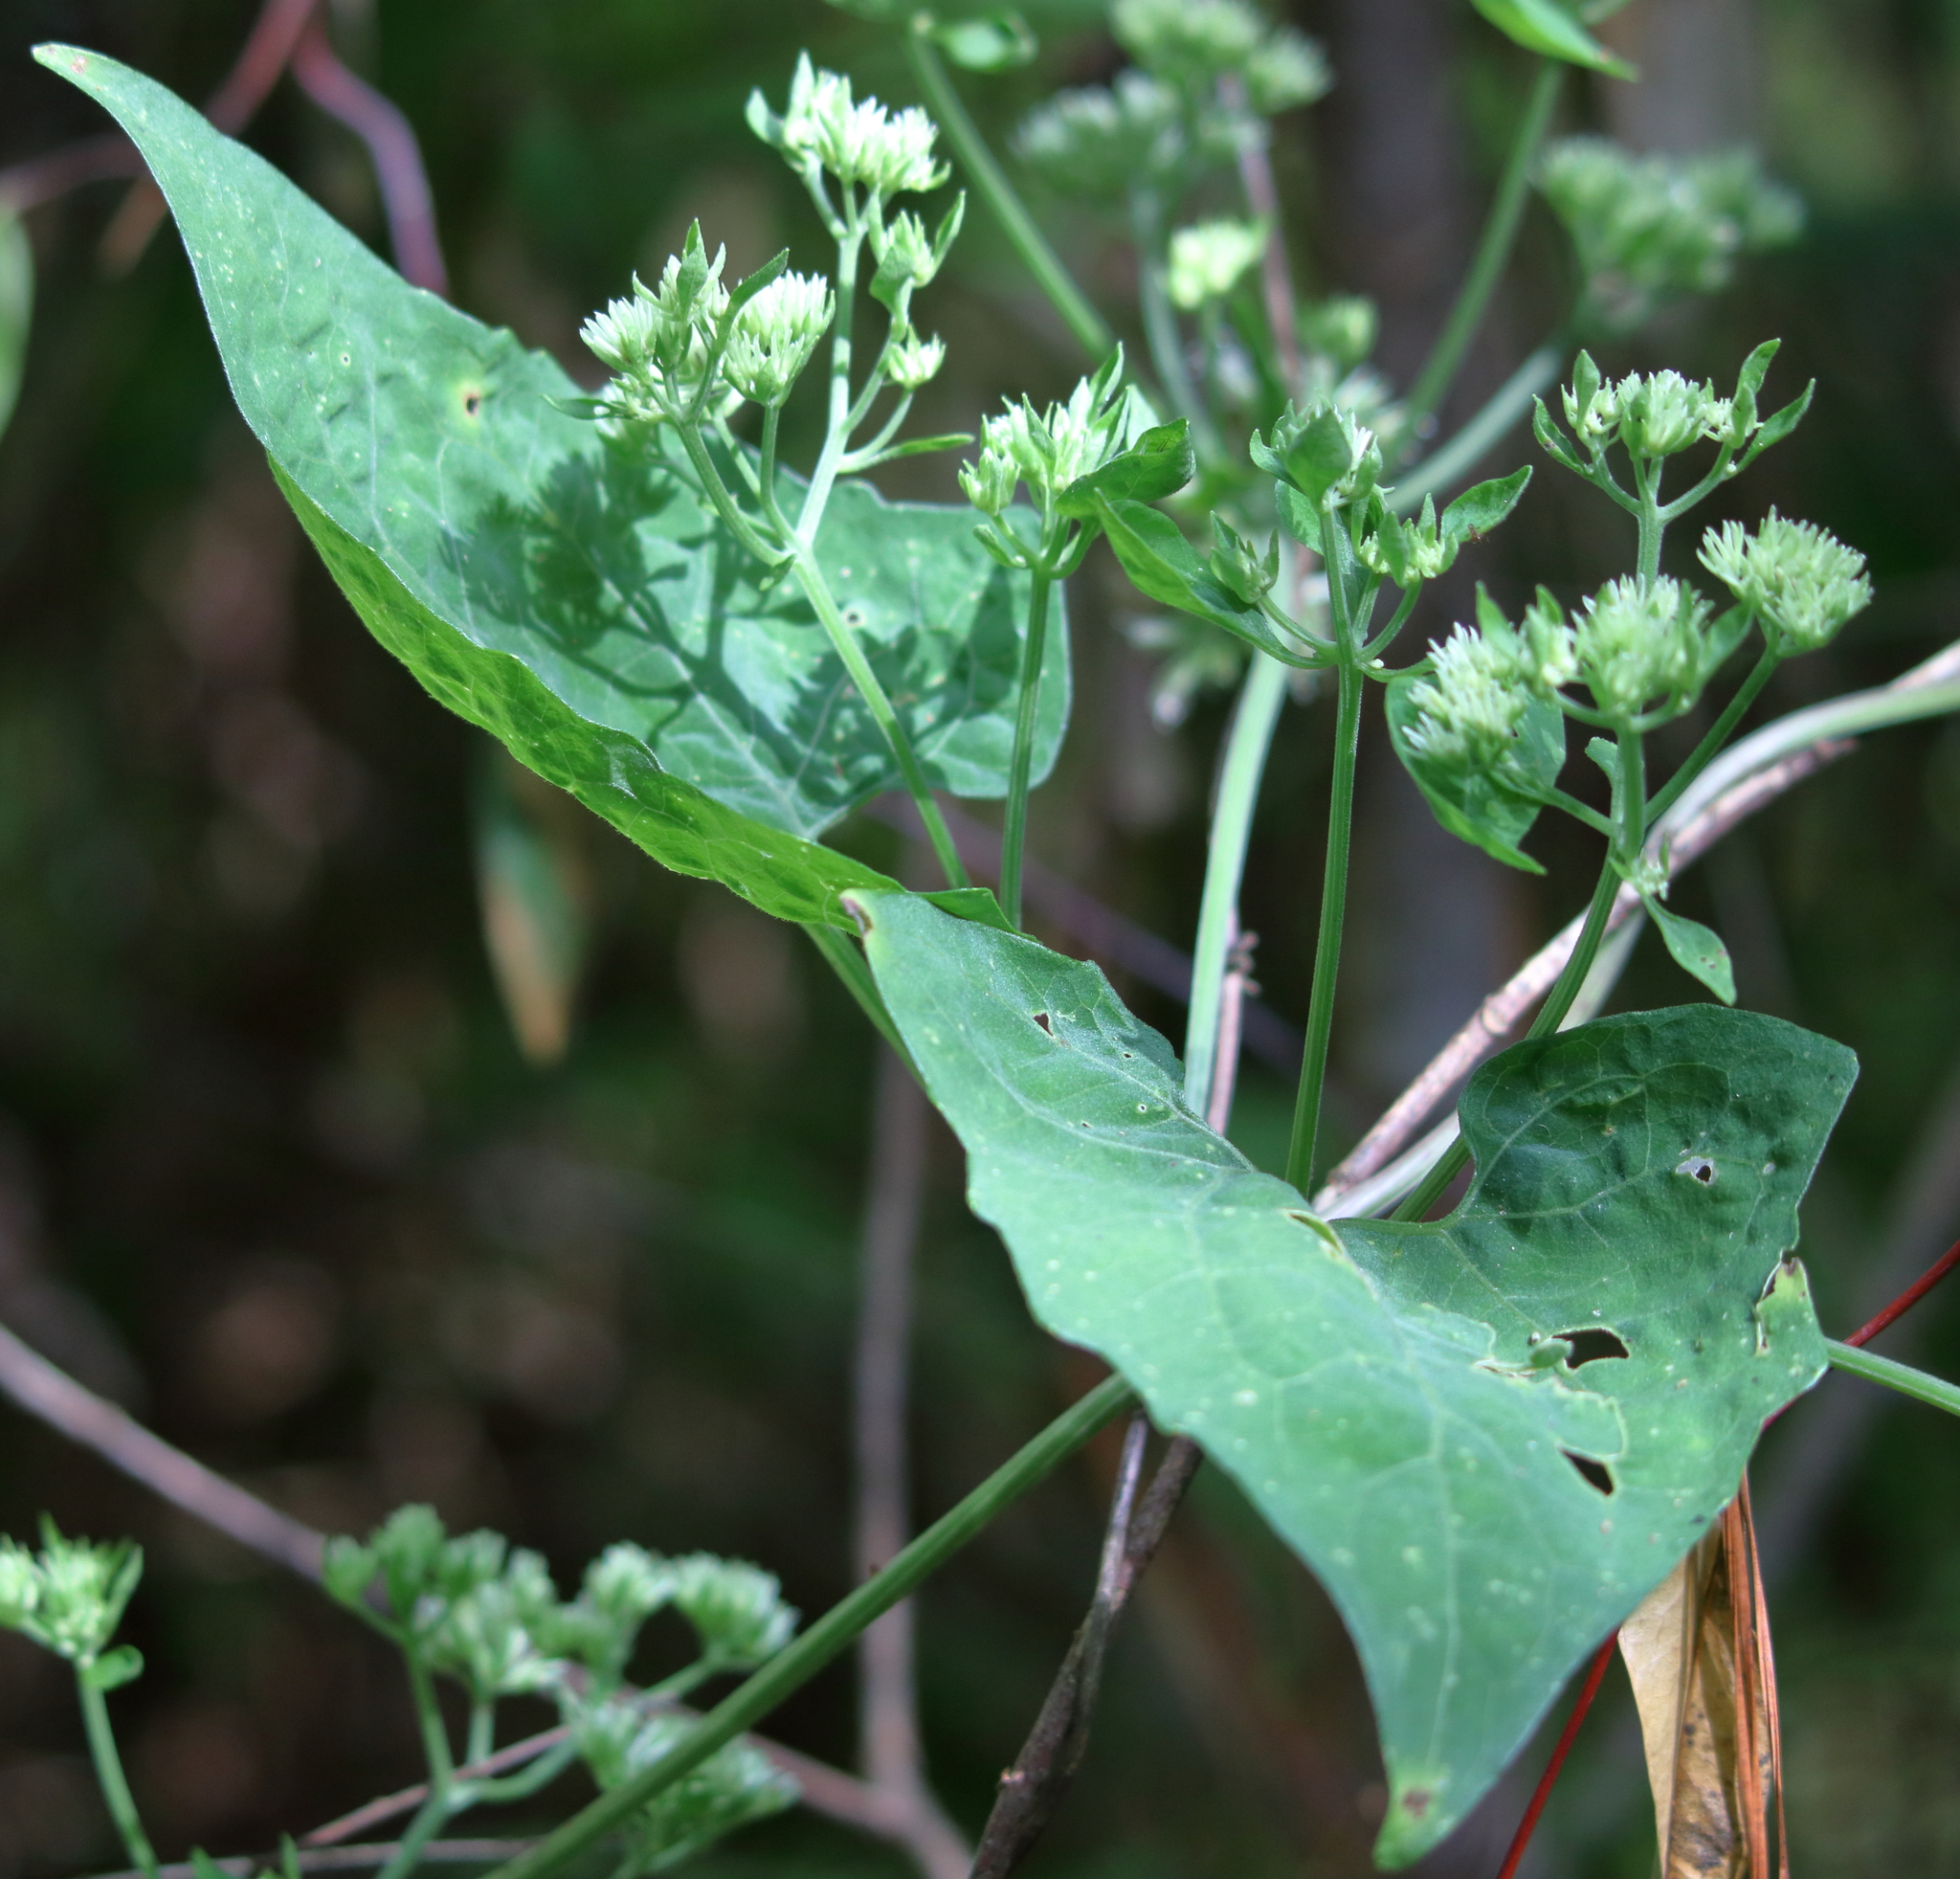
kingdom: Plantae
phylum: Tracheophyta
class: Magnoliopsida
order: Asterales
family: Asteraceae
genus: Mikania
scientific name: Mikania cordifolia
